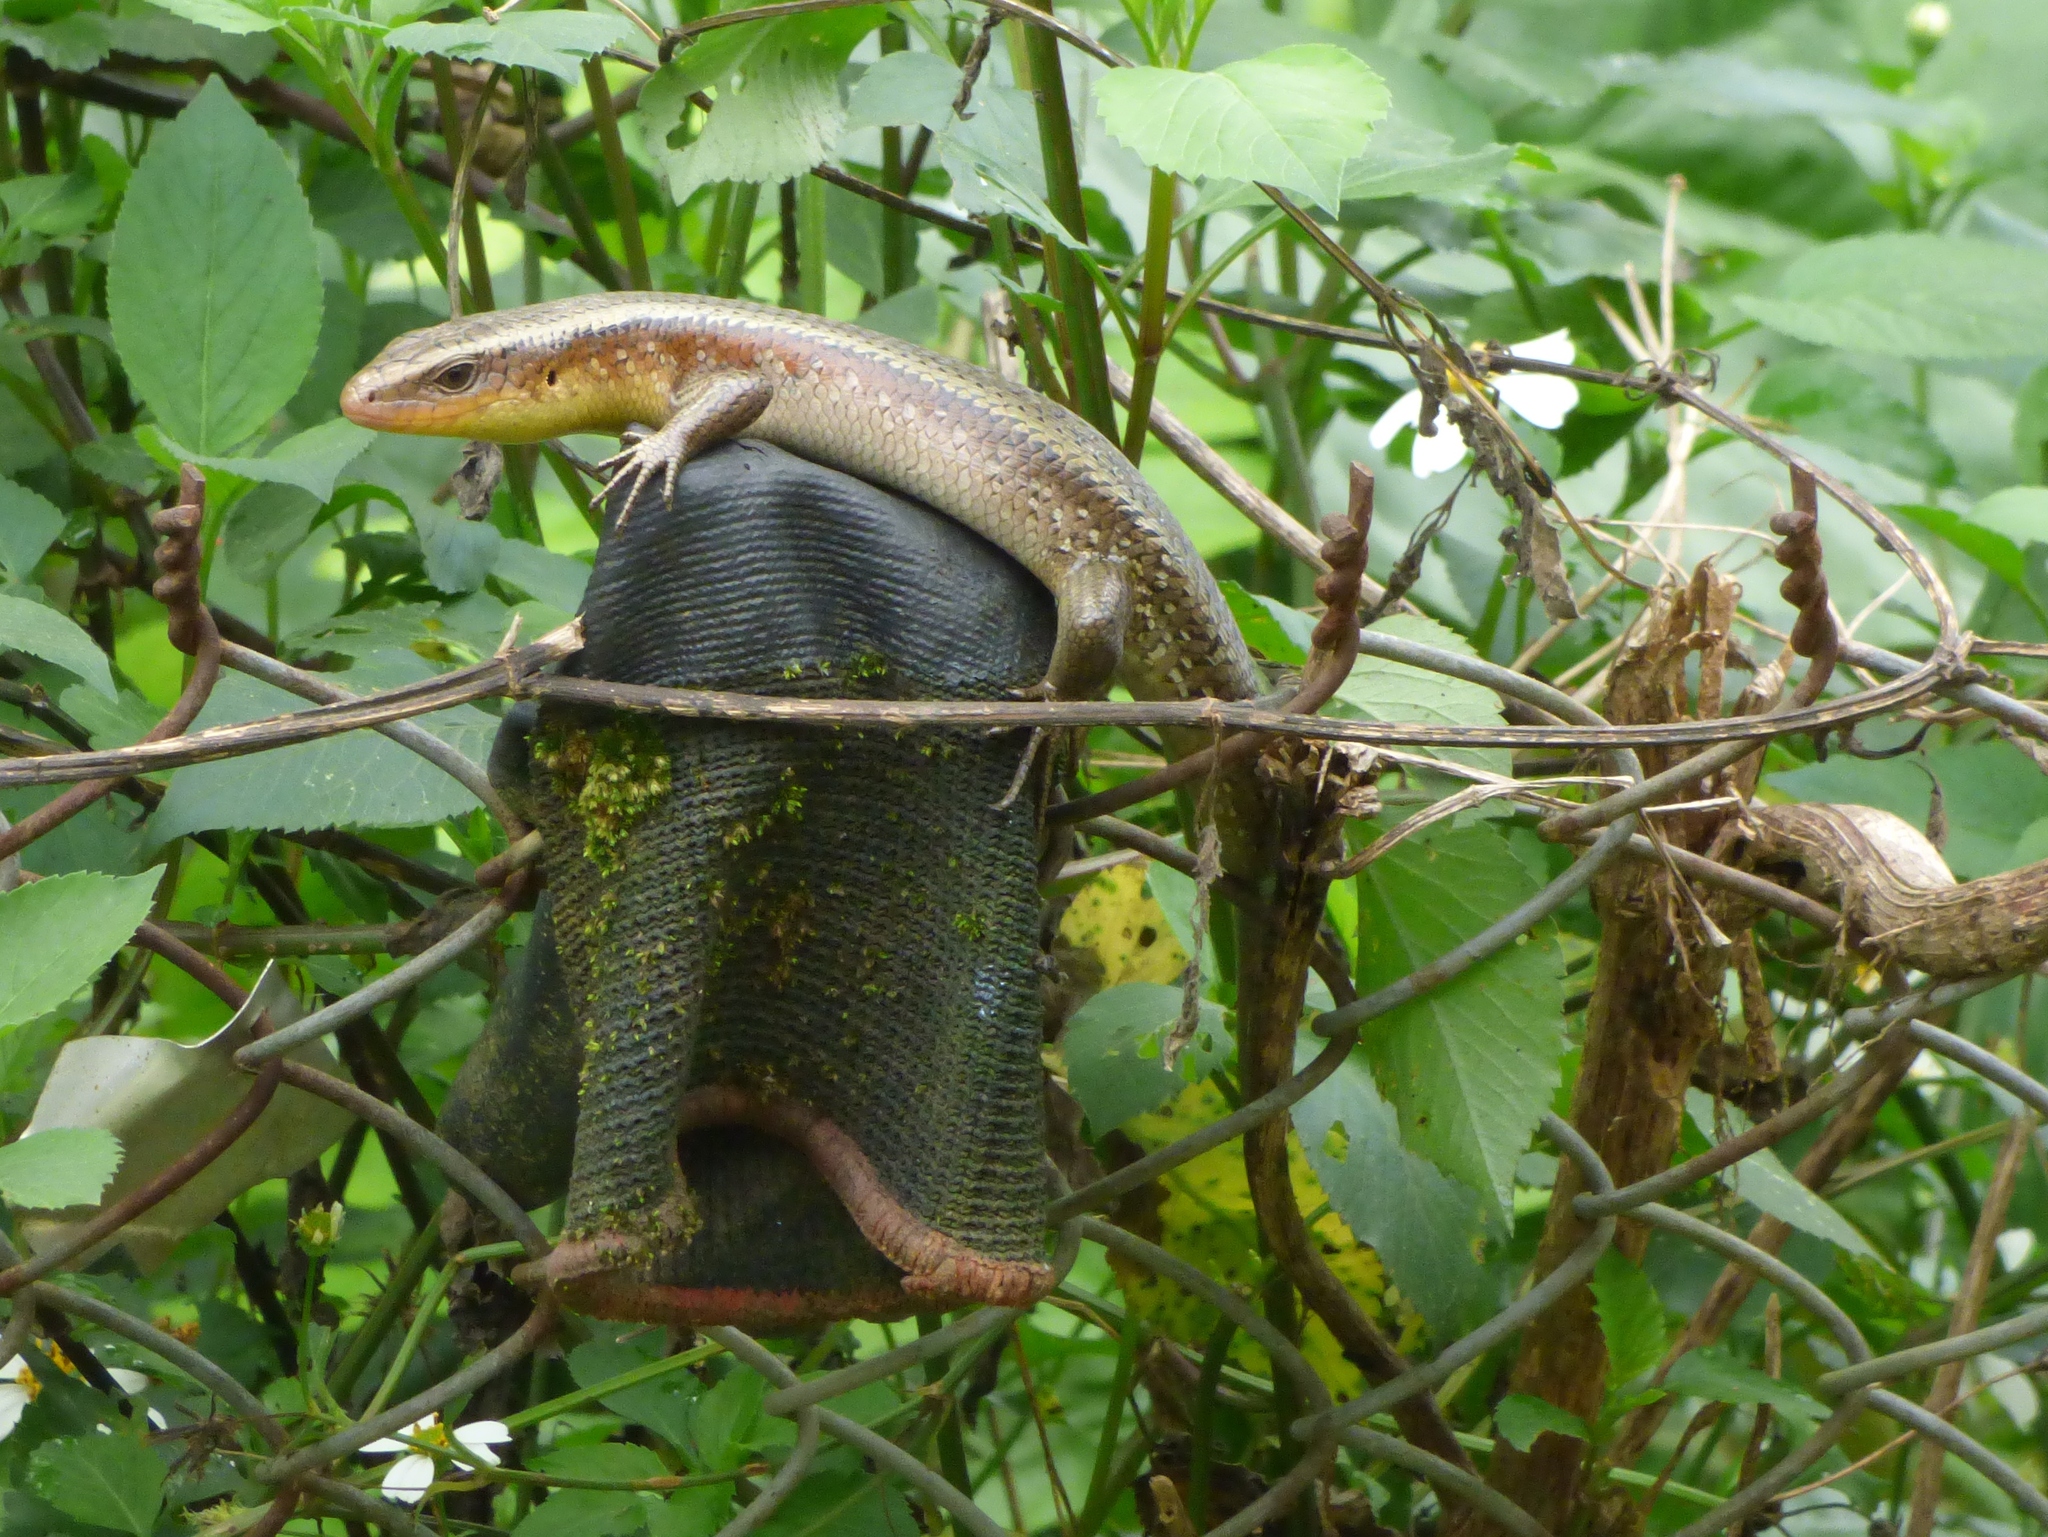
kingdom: Animalia
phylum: Chordata
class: Squamata
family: Scincidae
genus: Eutropis
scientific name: Eutropis multifasciata
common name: Common mabuya
